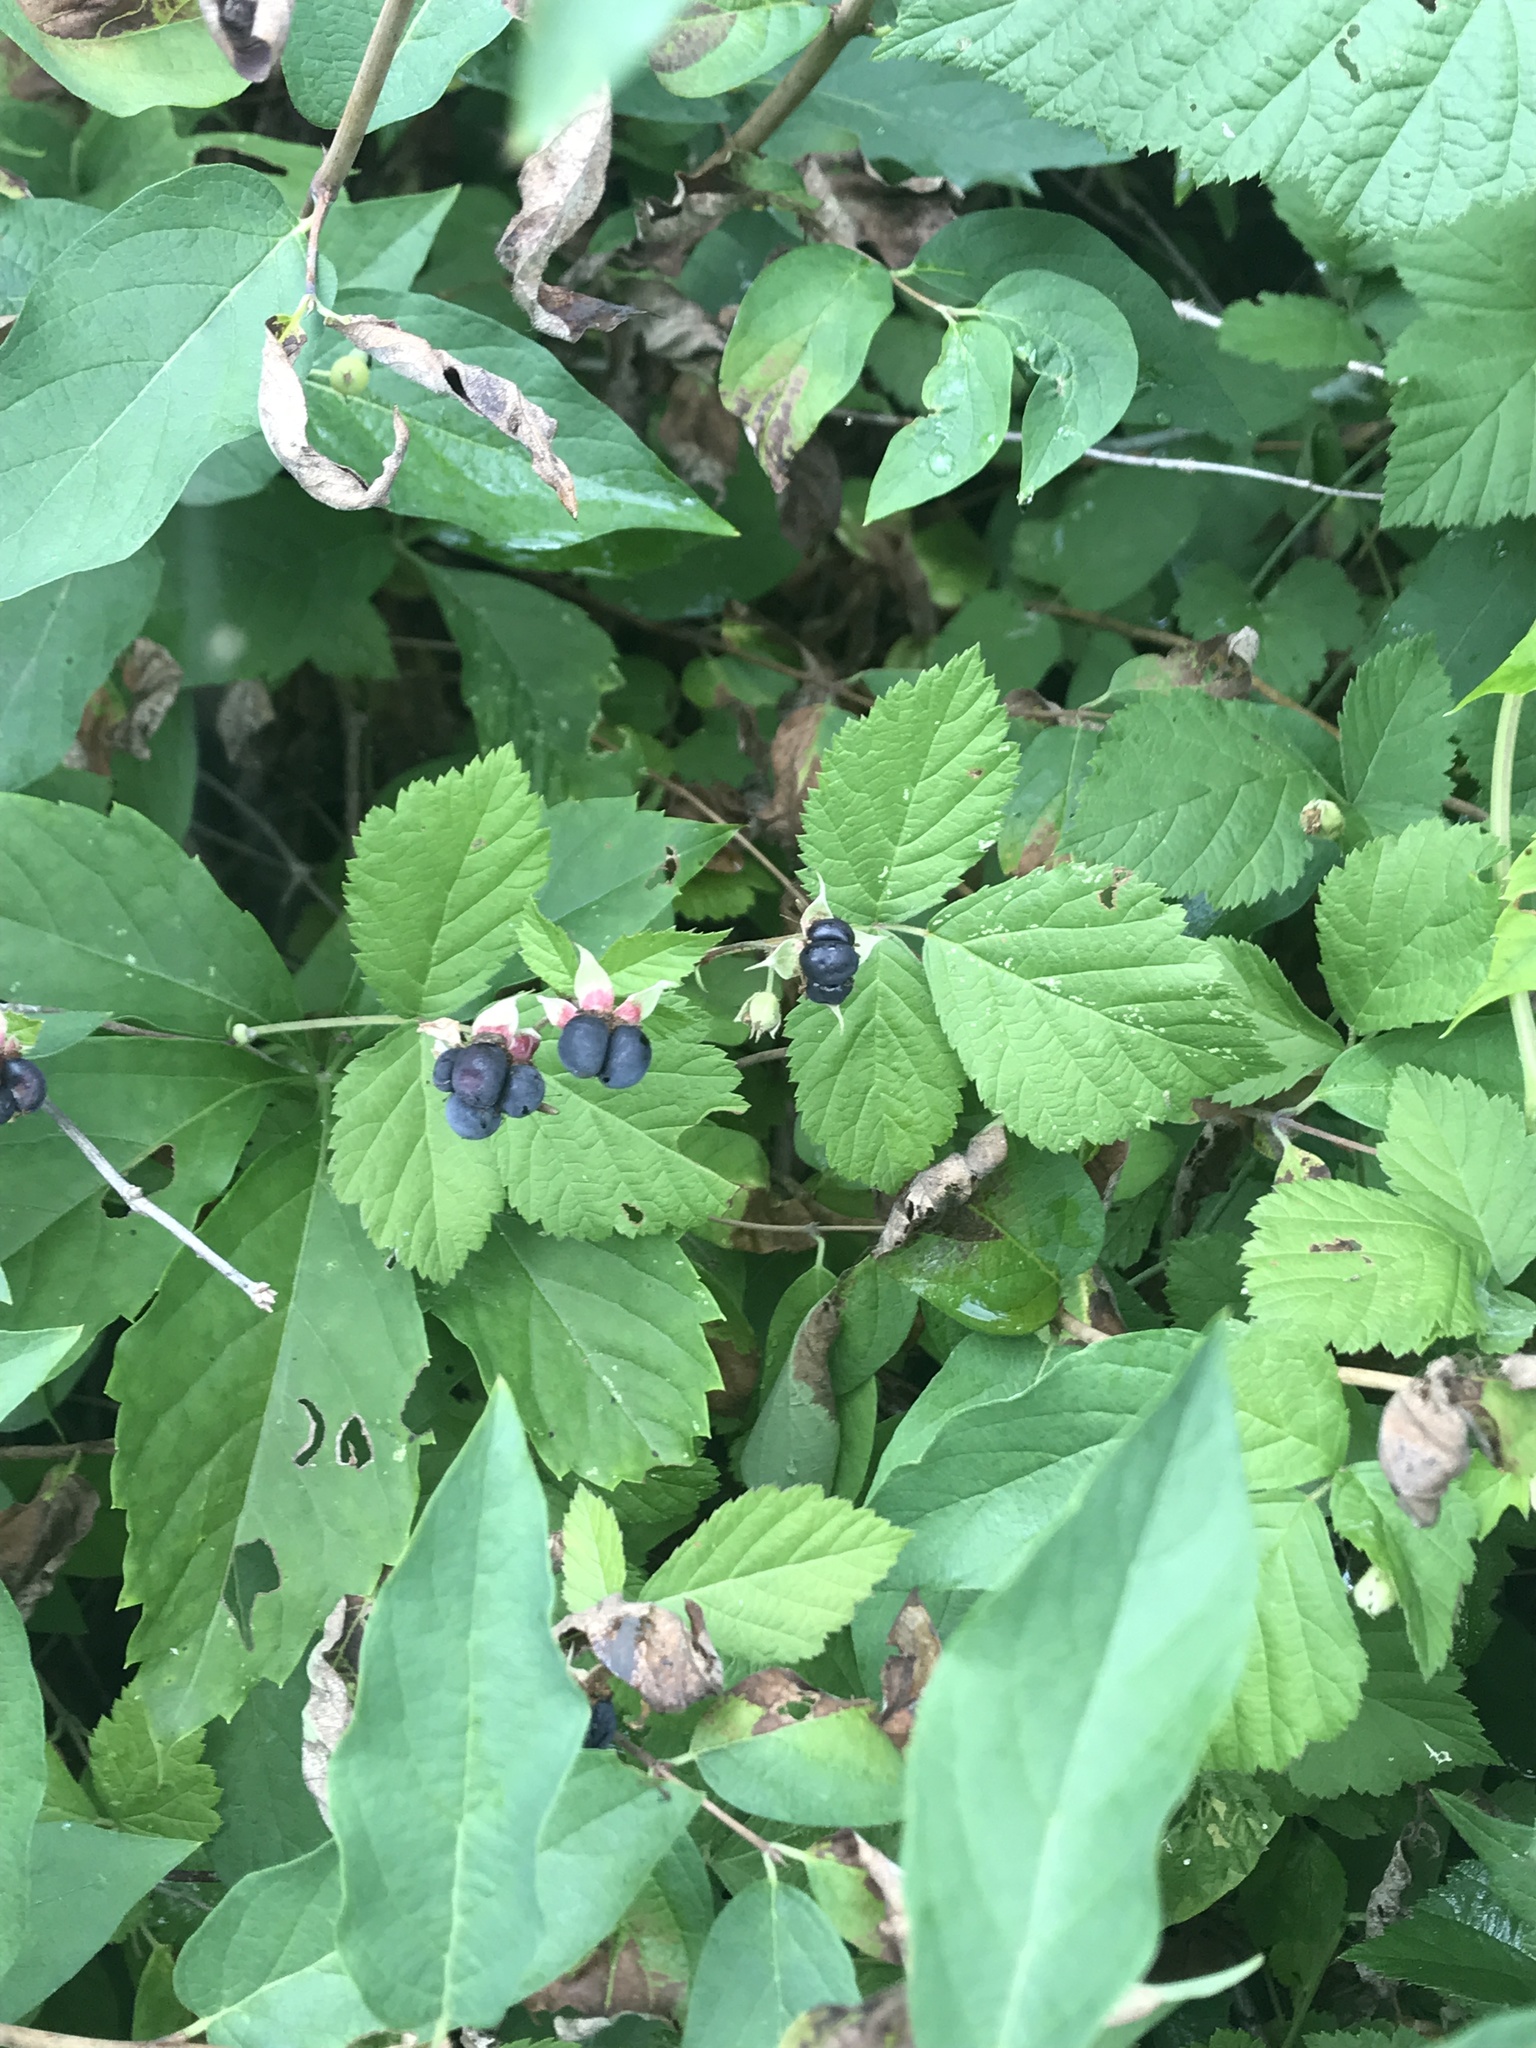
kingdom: Plantae
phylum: Tracheophyta
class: Magnoliopsida
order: Rosales
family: Rosaceae
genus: Rubus
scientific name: Rubus caesius
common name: Dewberry
